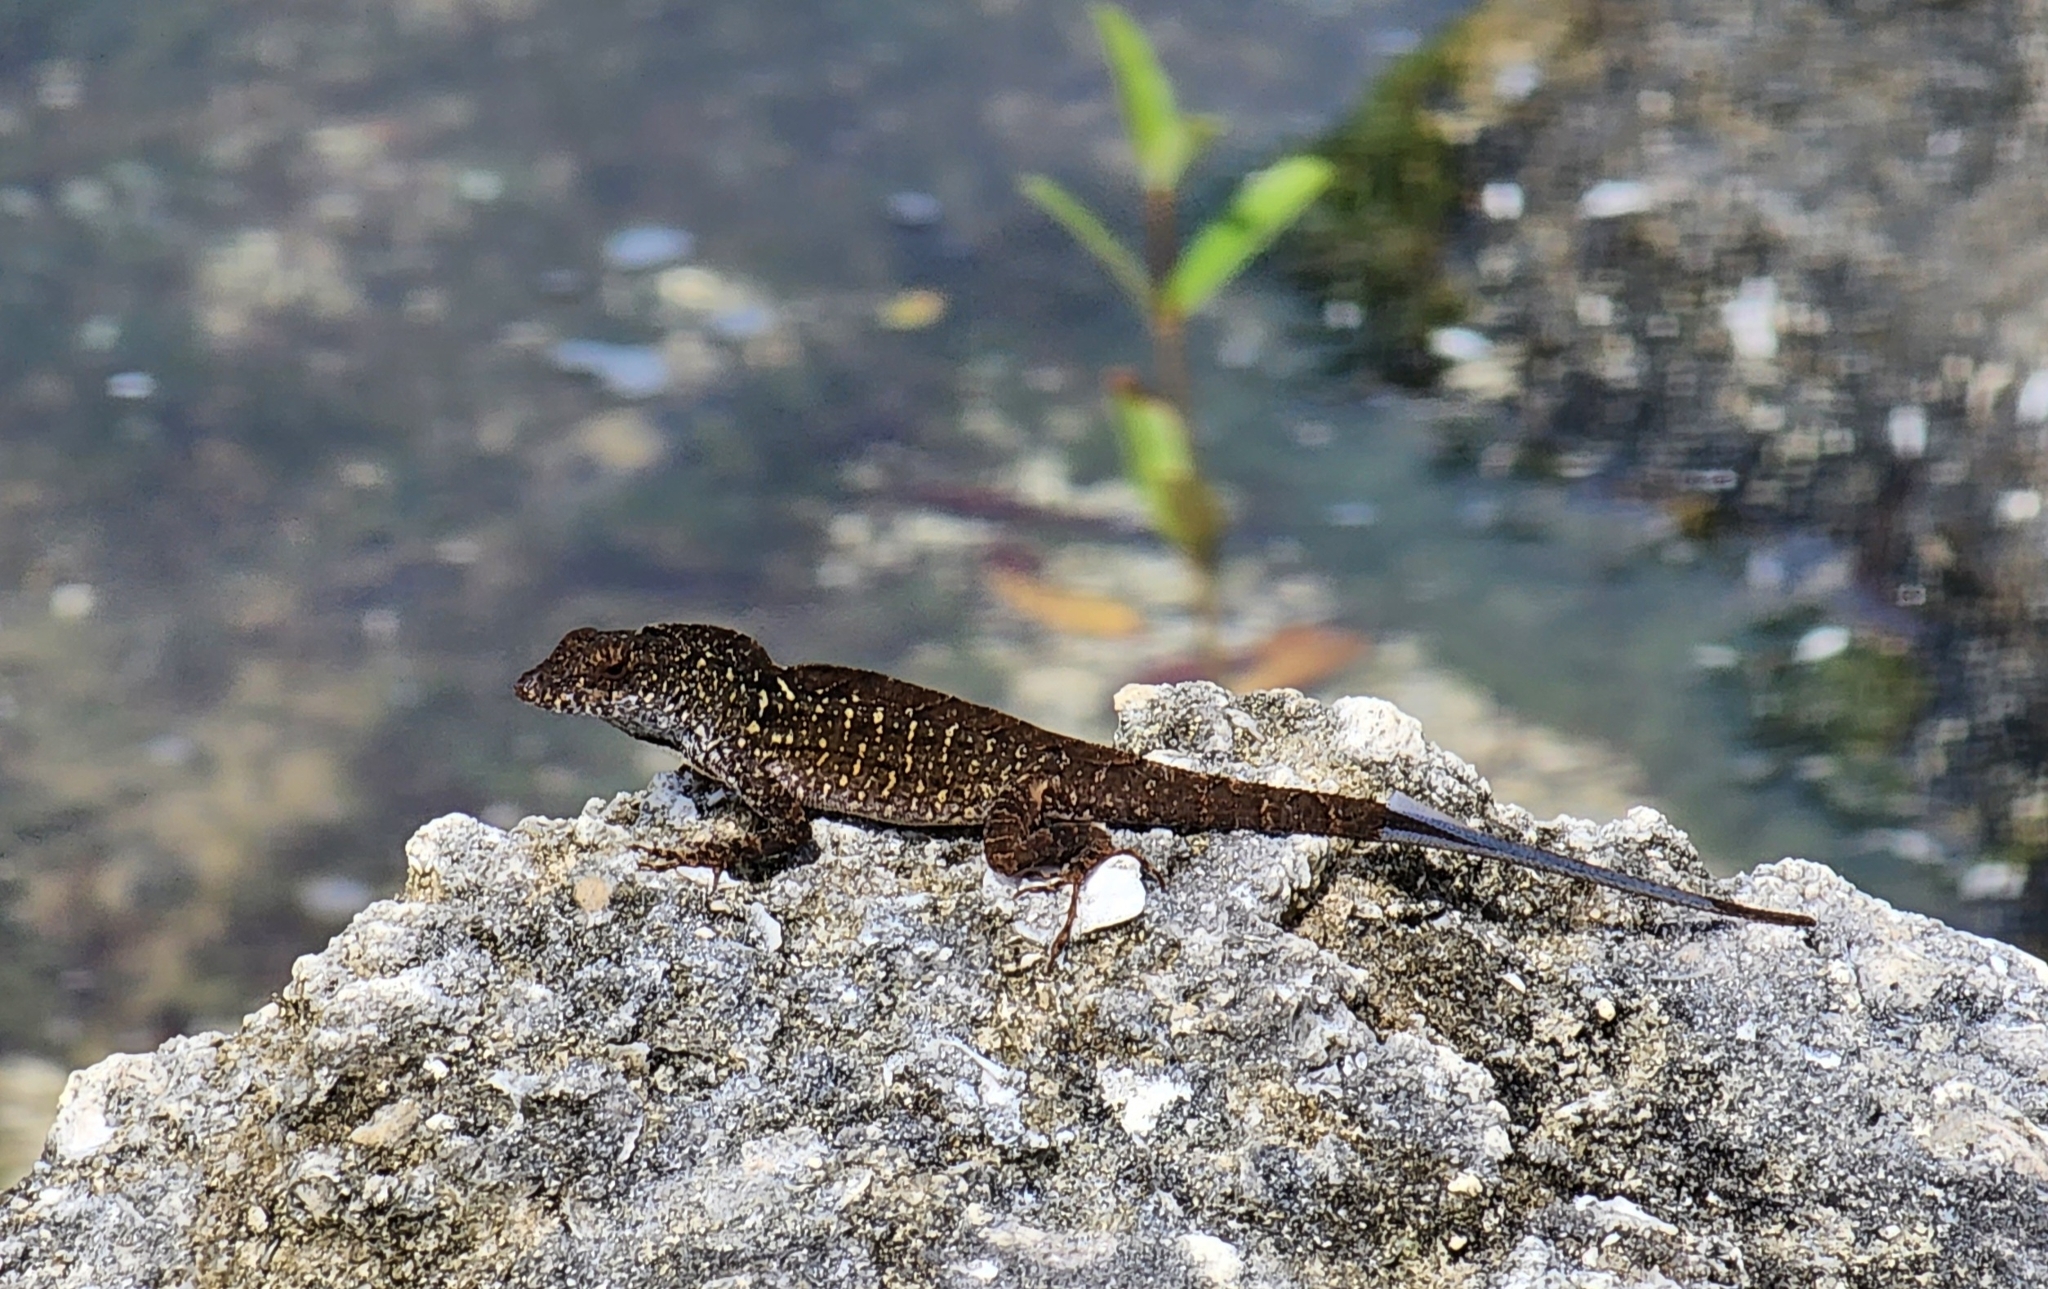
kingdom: Animalia
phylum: Chordata
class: Squamata
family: Dactyloidae
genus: Anolis
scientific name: Anolis sagrei
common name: Brown anole
